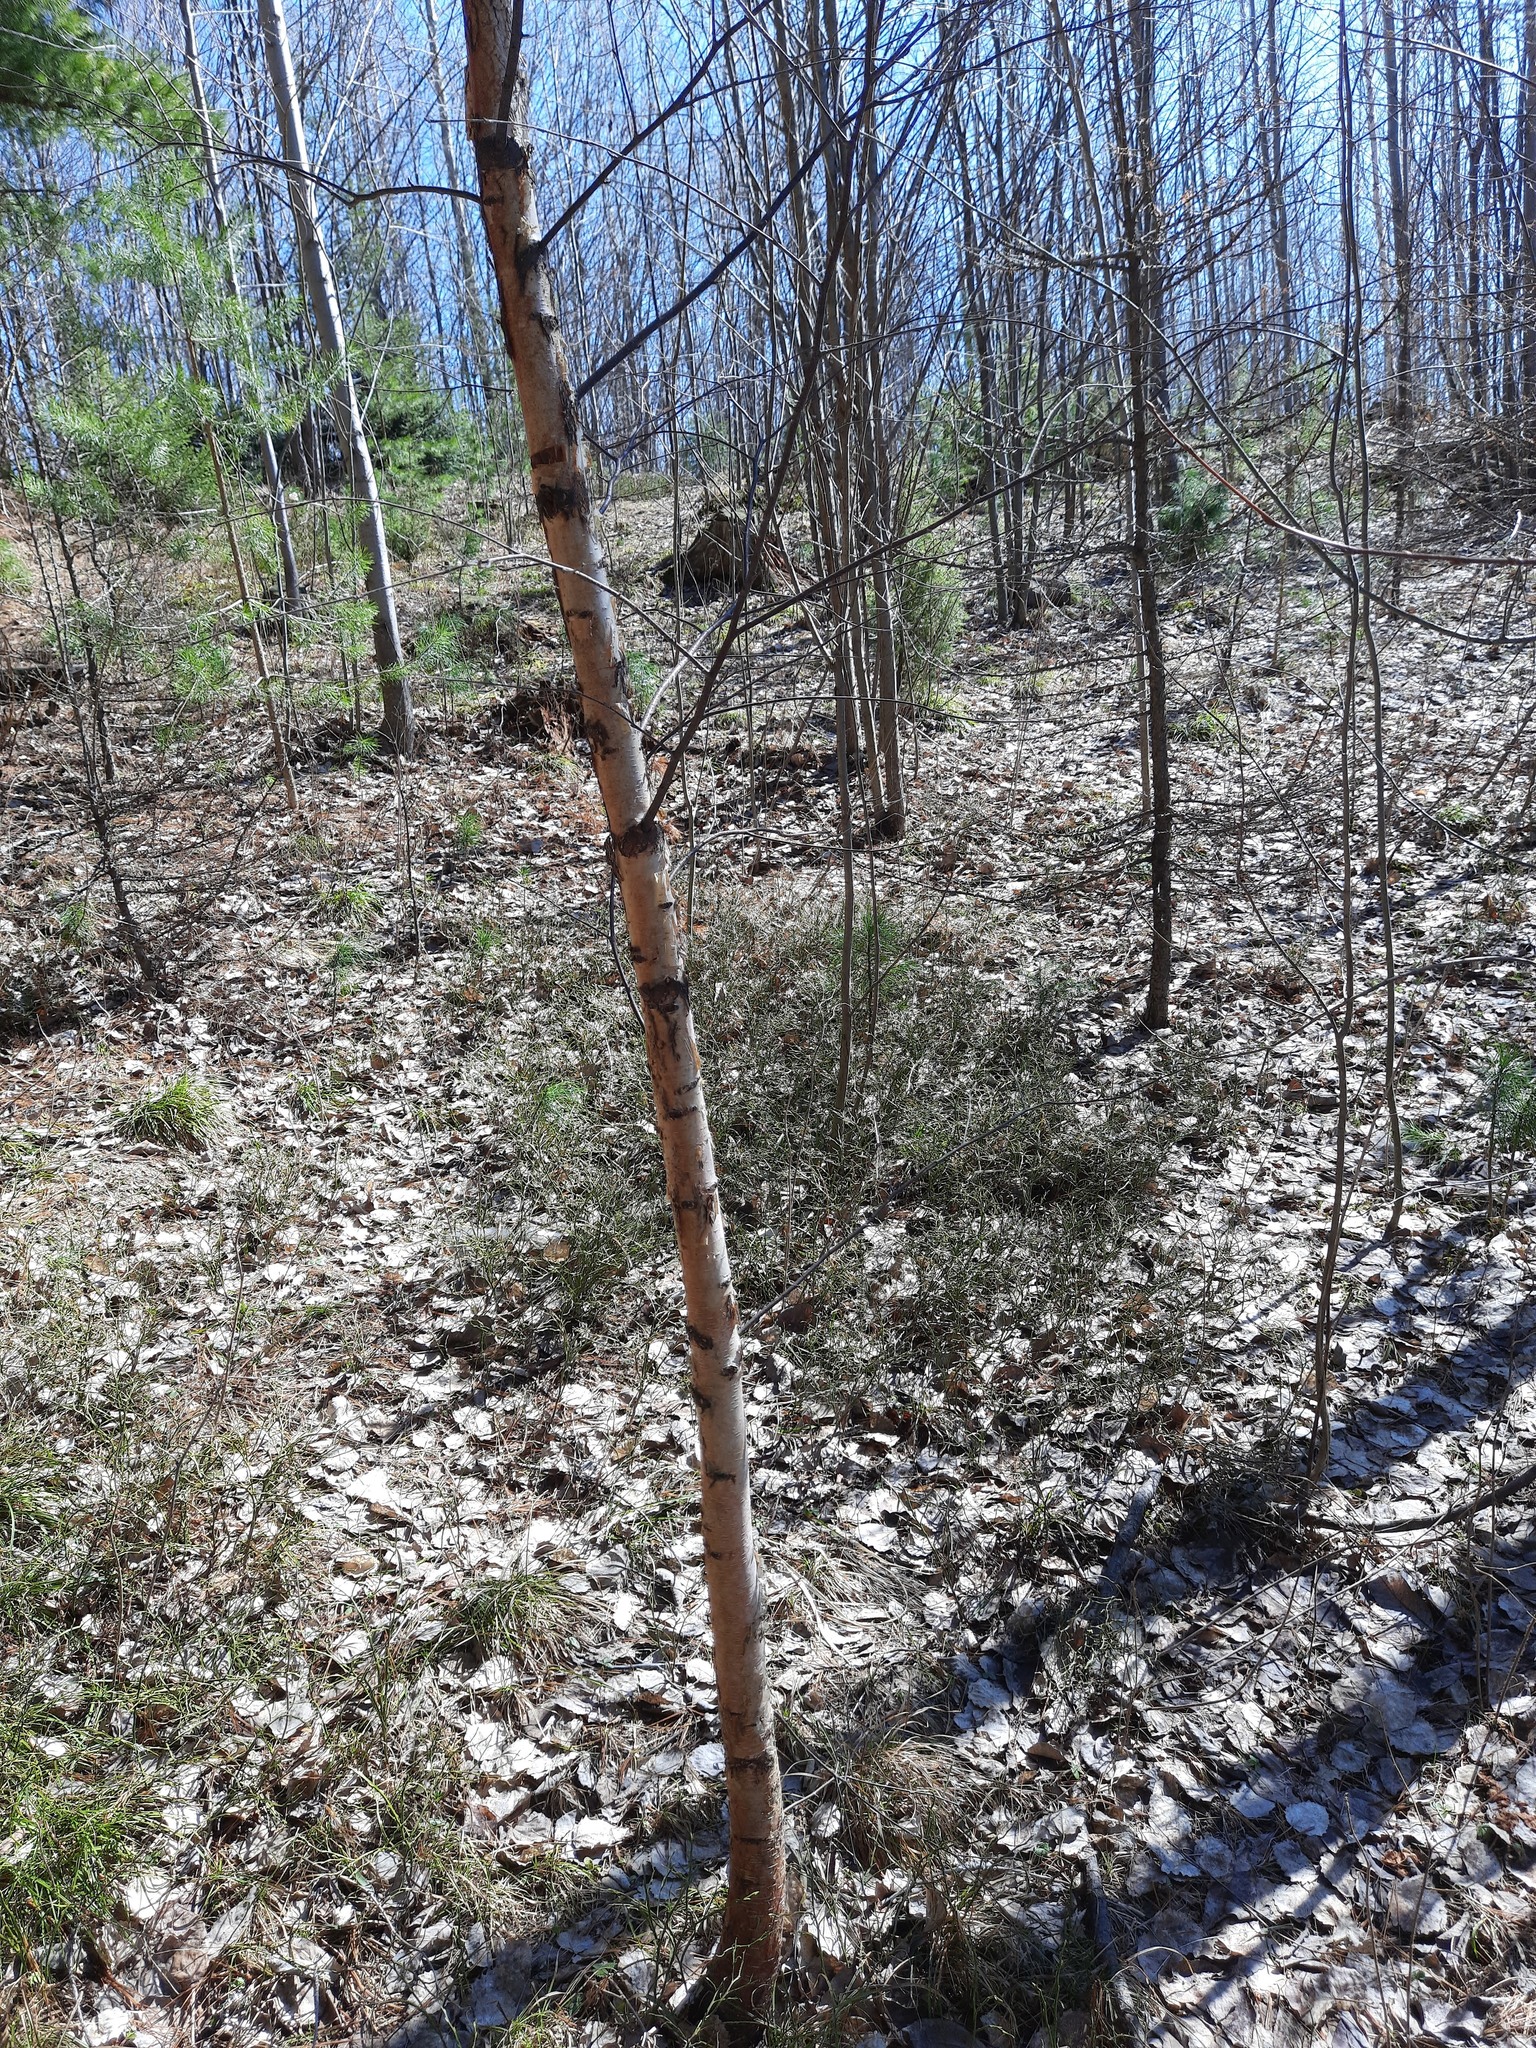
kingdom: Plantae
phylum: Tracheophyta
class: Magnoliopsida
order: Fagales
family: Betulaceae
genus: Betula
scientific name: Betula pendula
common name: Silver birch
